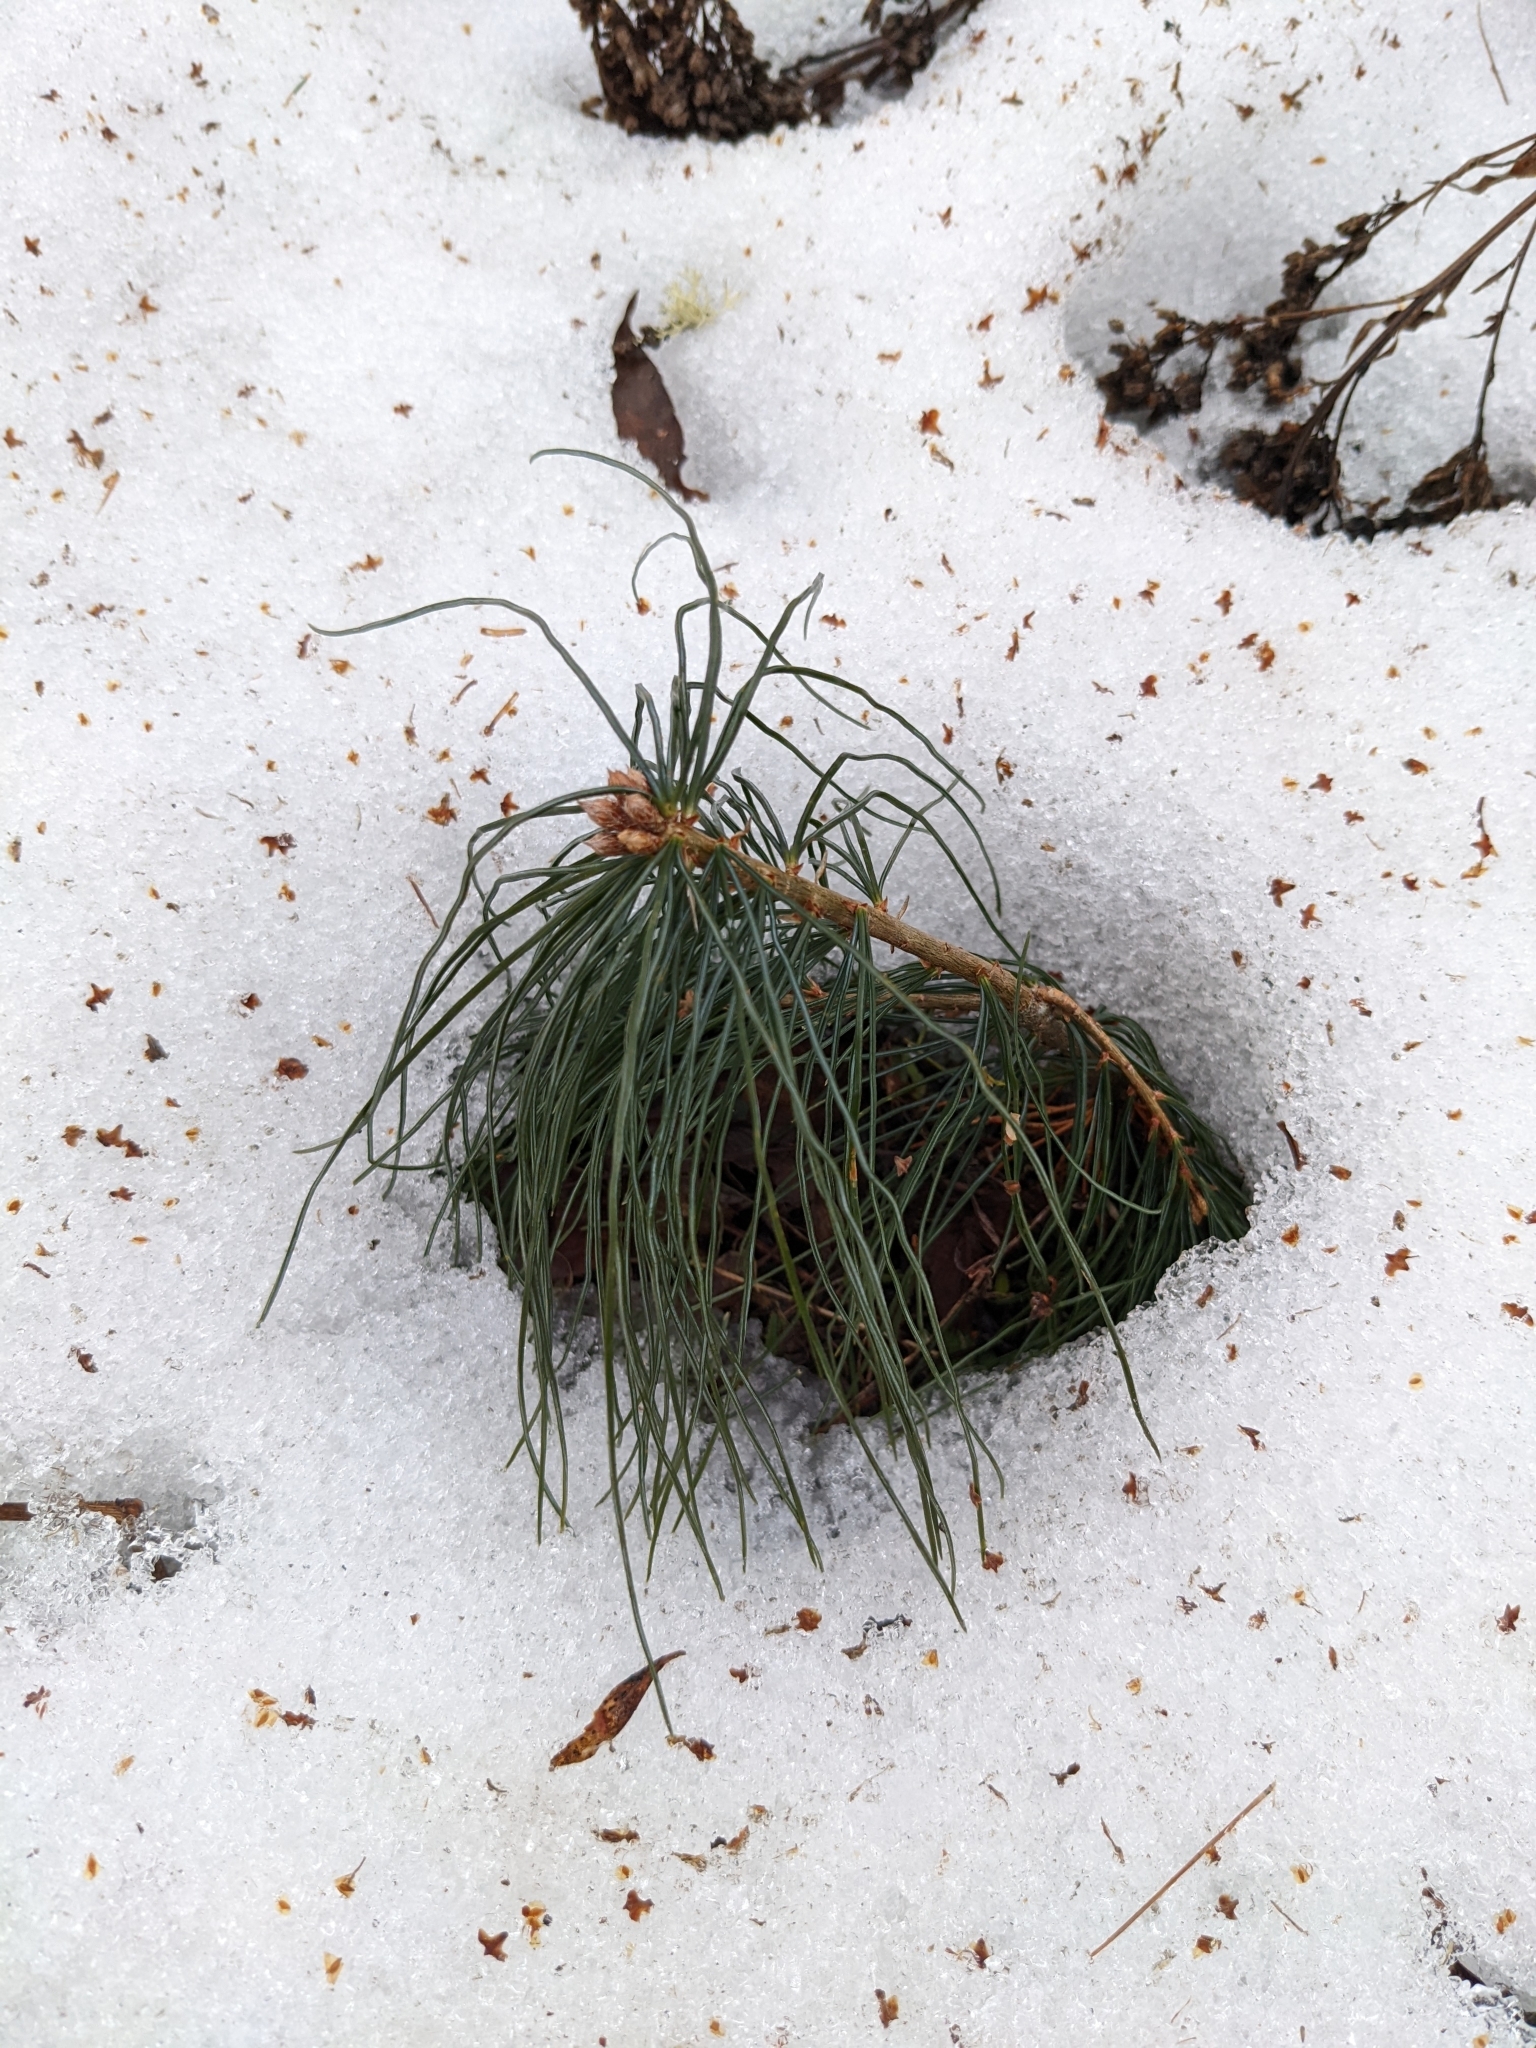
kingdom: Plantae
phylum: Tracheophyta
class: Pinopsida
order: Pinales
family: Pinaceae
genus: Pinus
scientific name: Pinus strobus
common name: Weymouth pine
